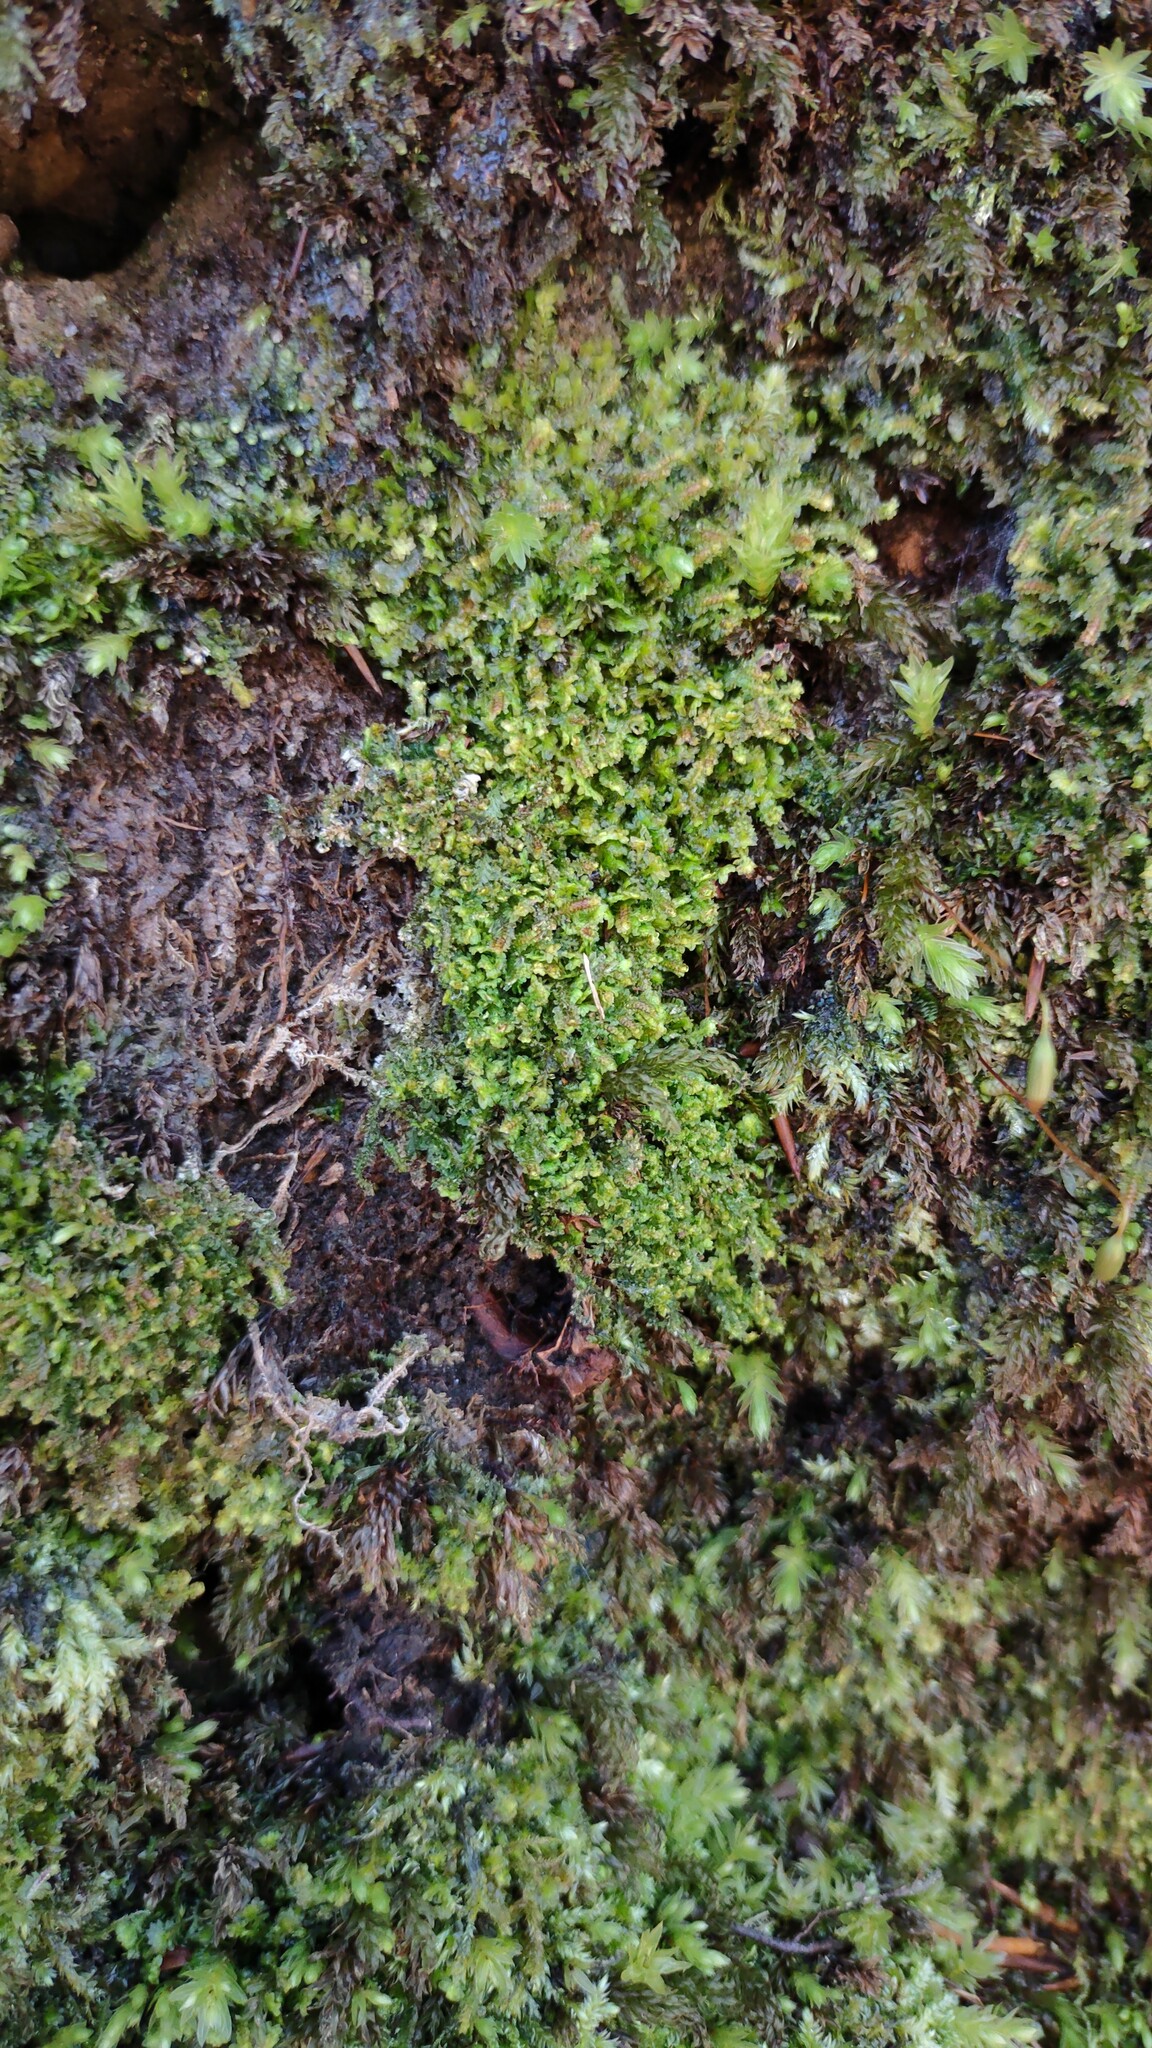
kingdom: Plantae
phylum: Marchantiophyta
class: Jungermanniopsida
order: Jungermanniales
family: Scapaniaceae
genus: Diplophyllum
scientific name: Diplophyllum albicans
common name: White earwort
